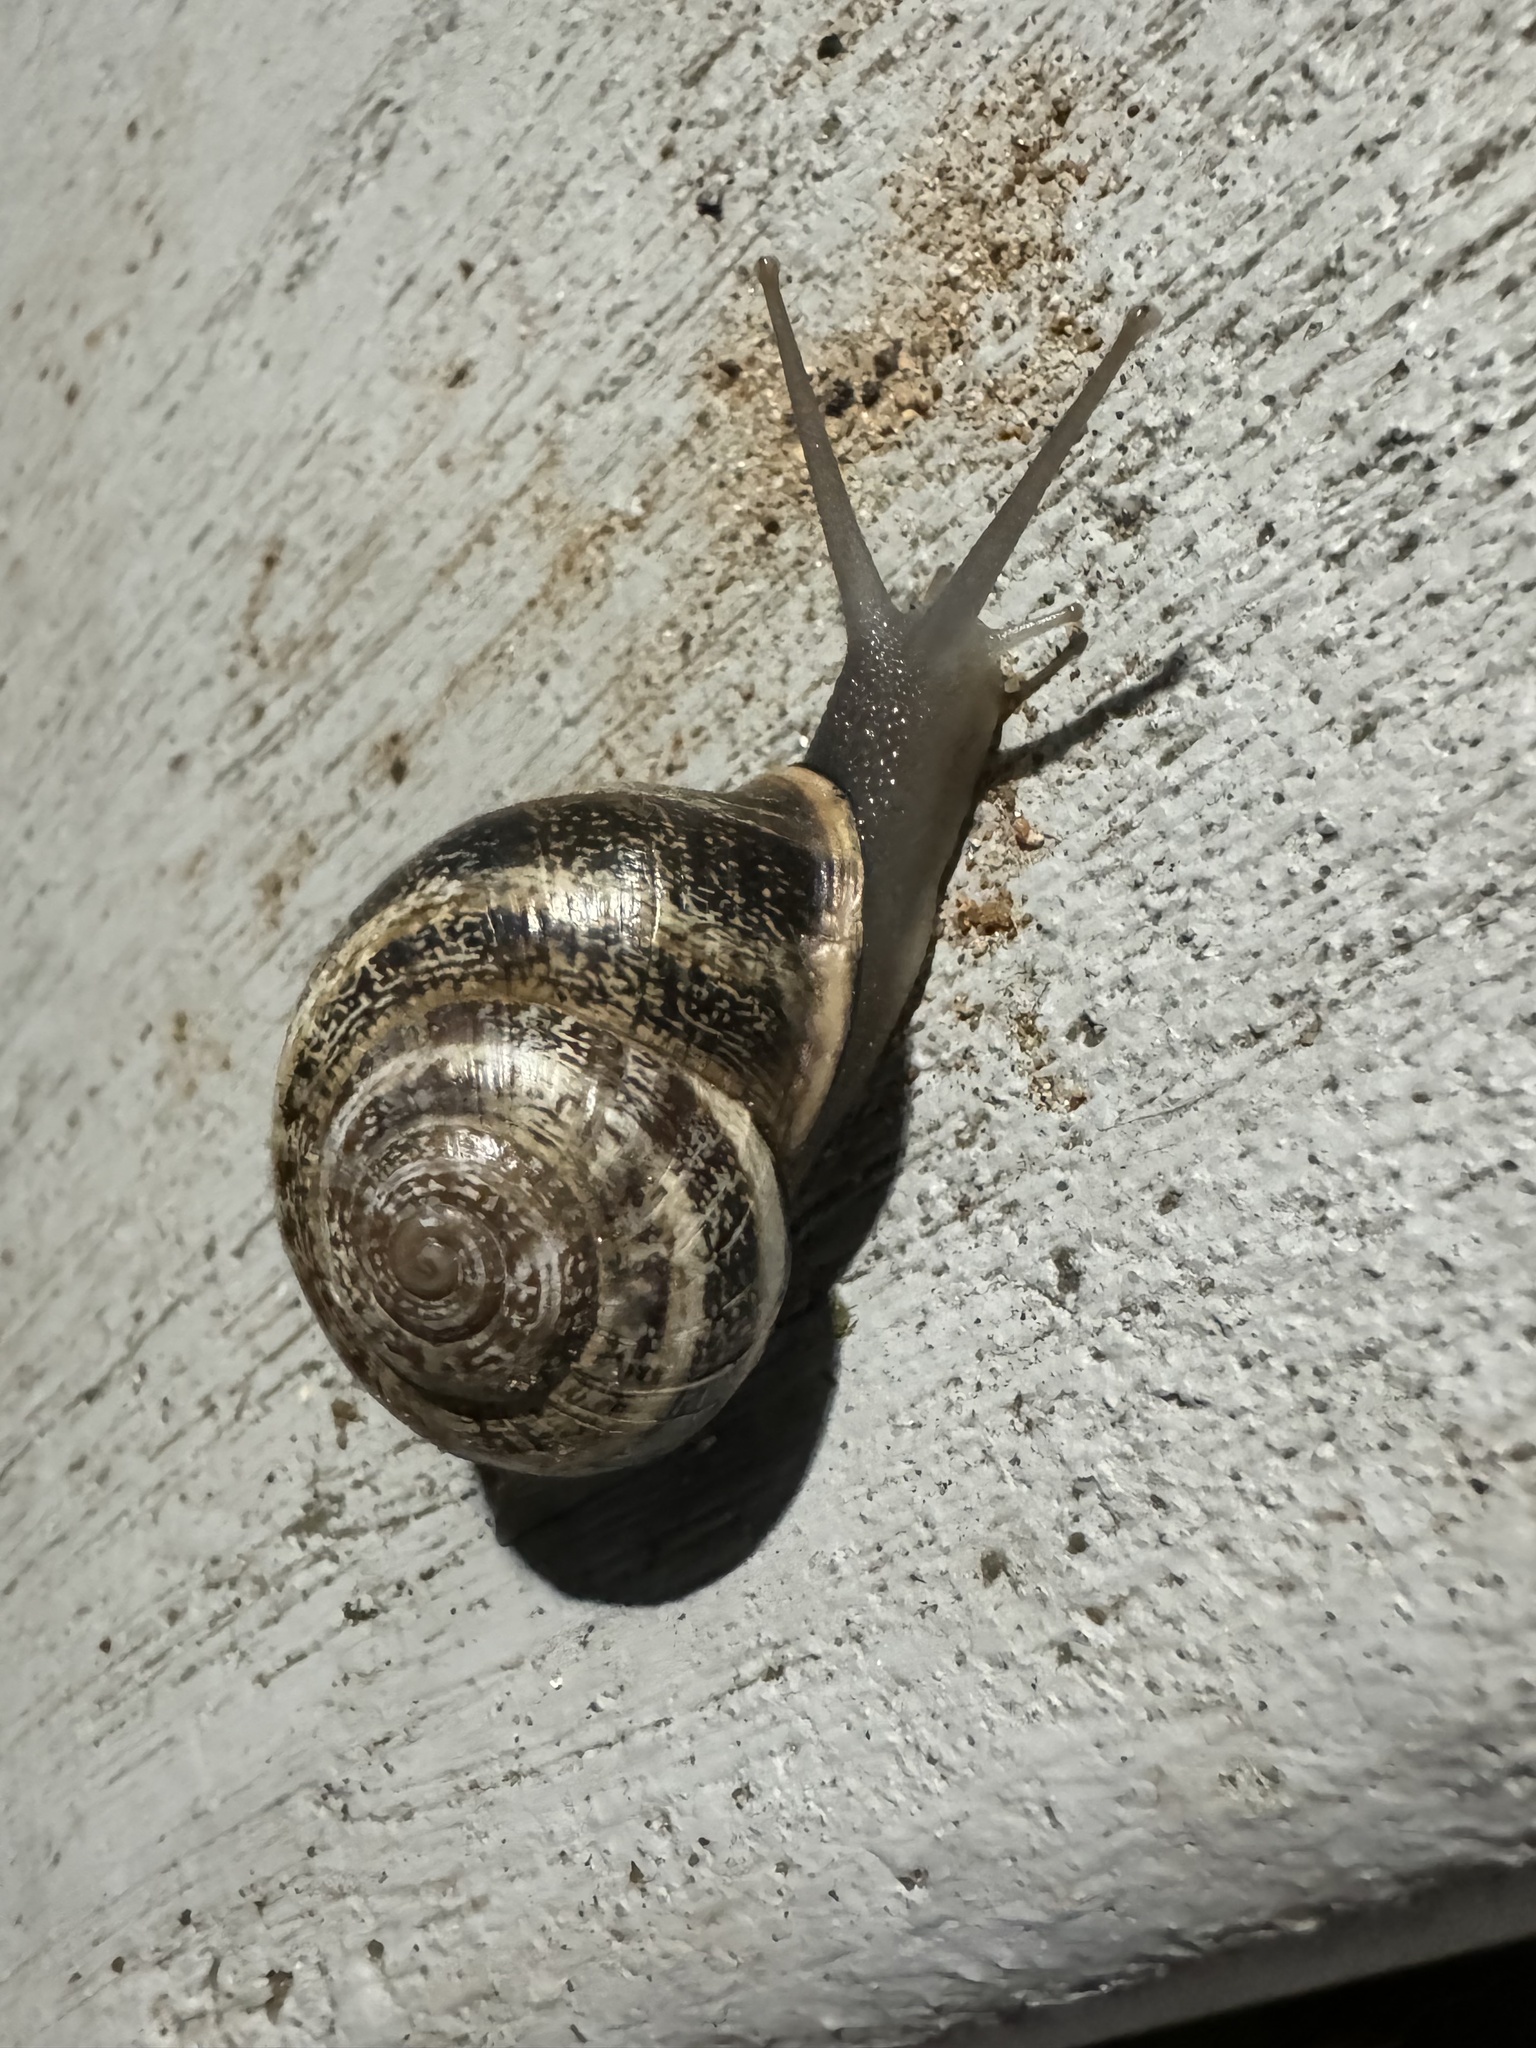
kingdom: Animalia
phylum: Mollusca
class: Gastropoda
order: Stylommatophora
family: Helicidae
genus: Otala
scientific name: Otala lactea
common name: Milk snail
